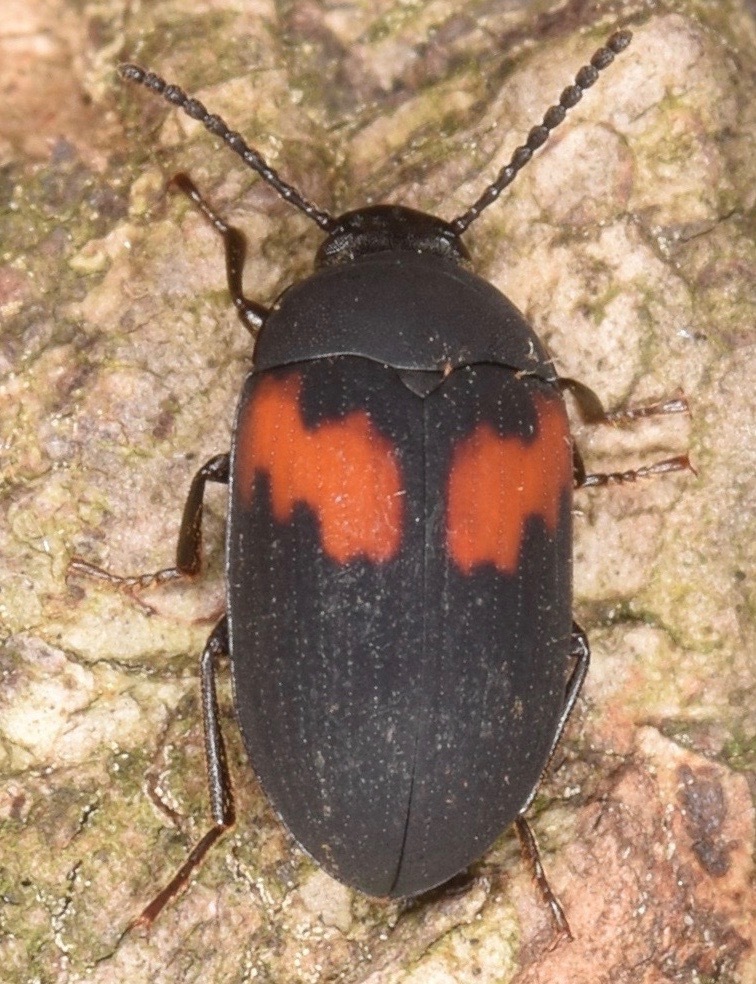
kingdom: Animalia
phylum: Arthropoda
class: Insecta
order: Coleoptera
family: Tenebrionidae
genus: Platydema
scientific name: Platydema elliptica
